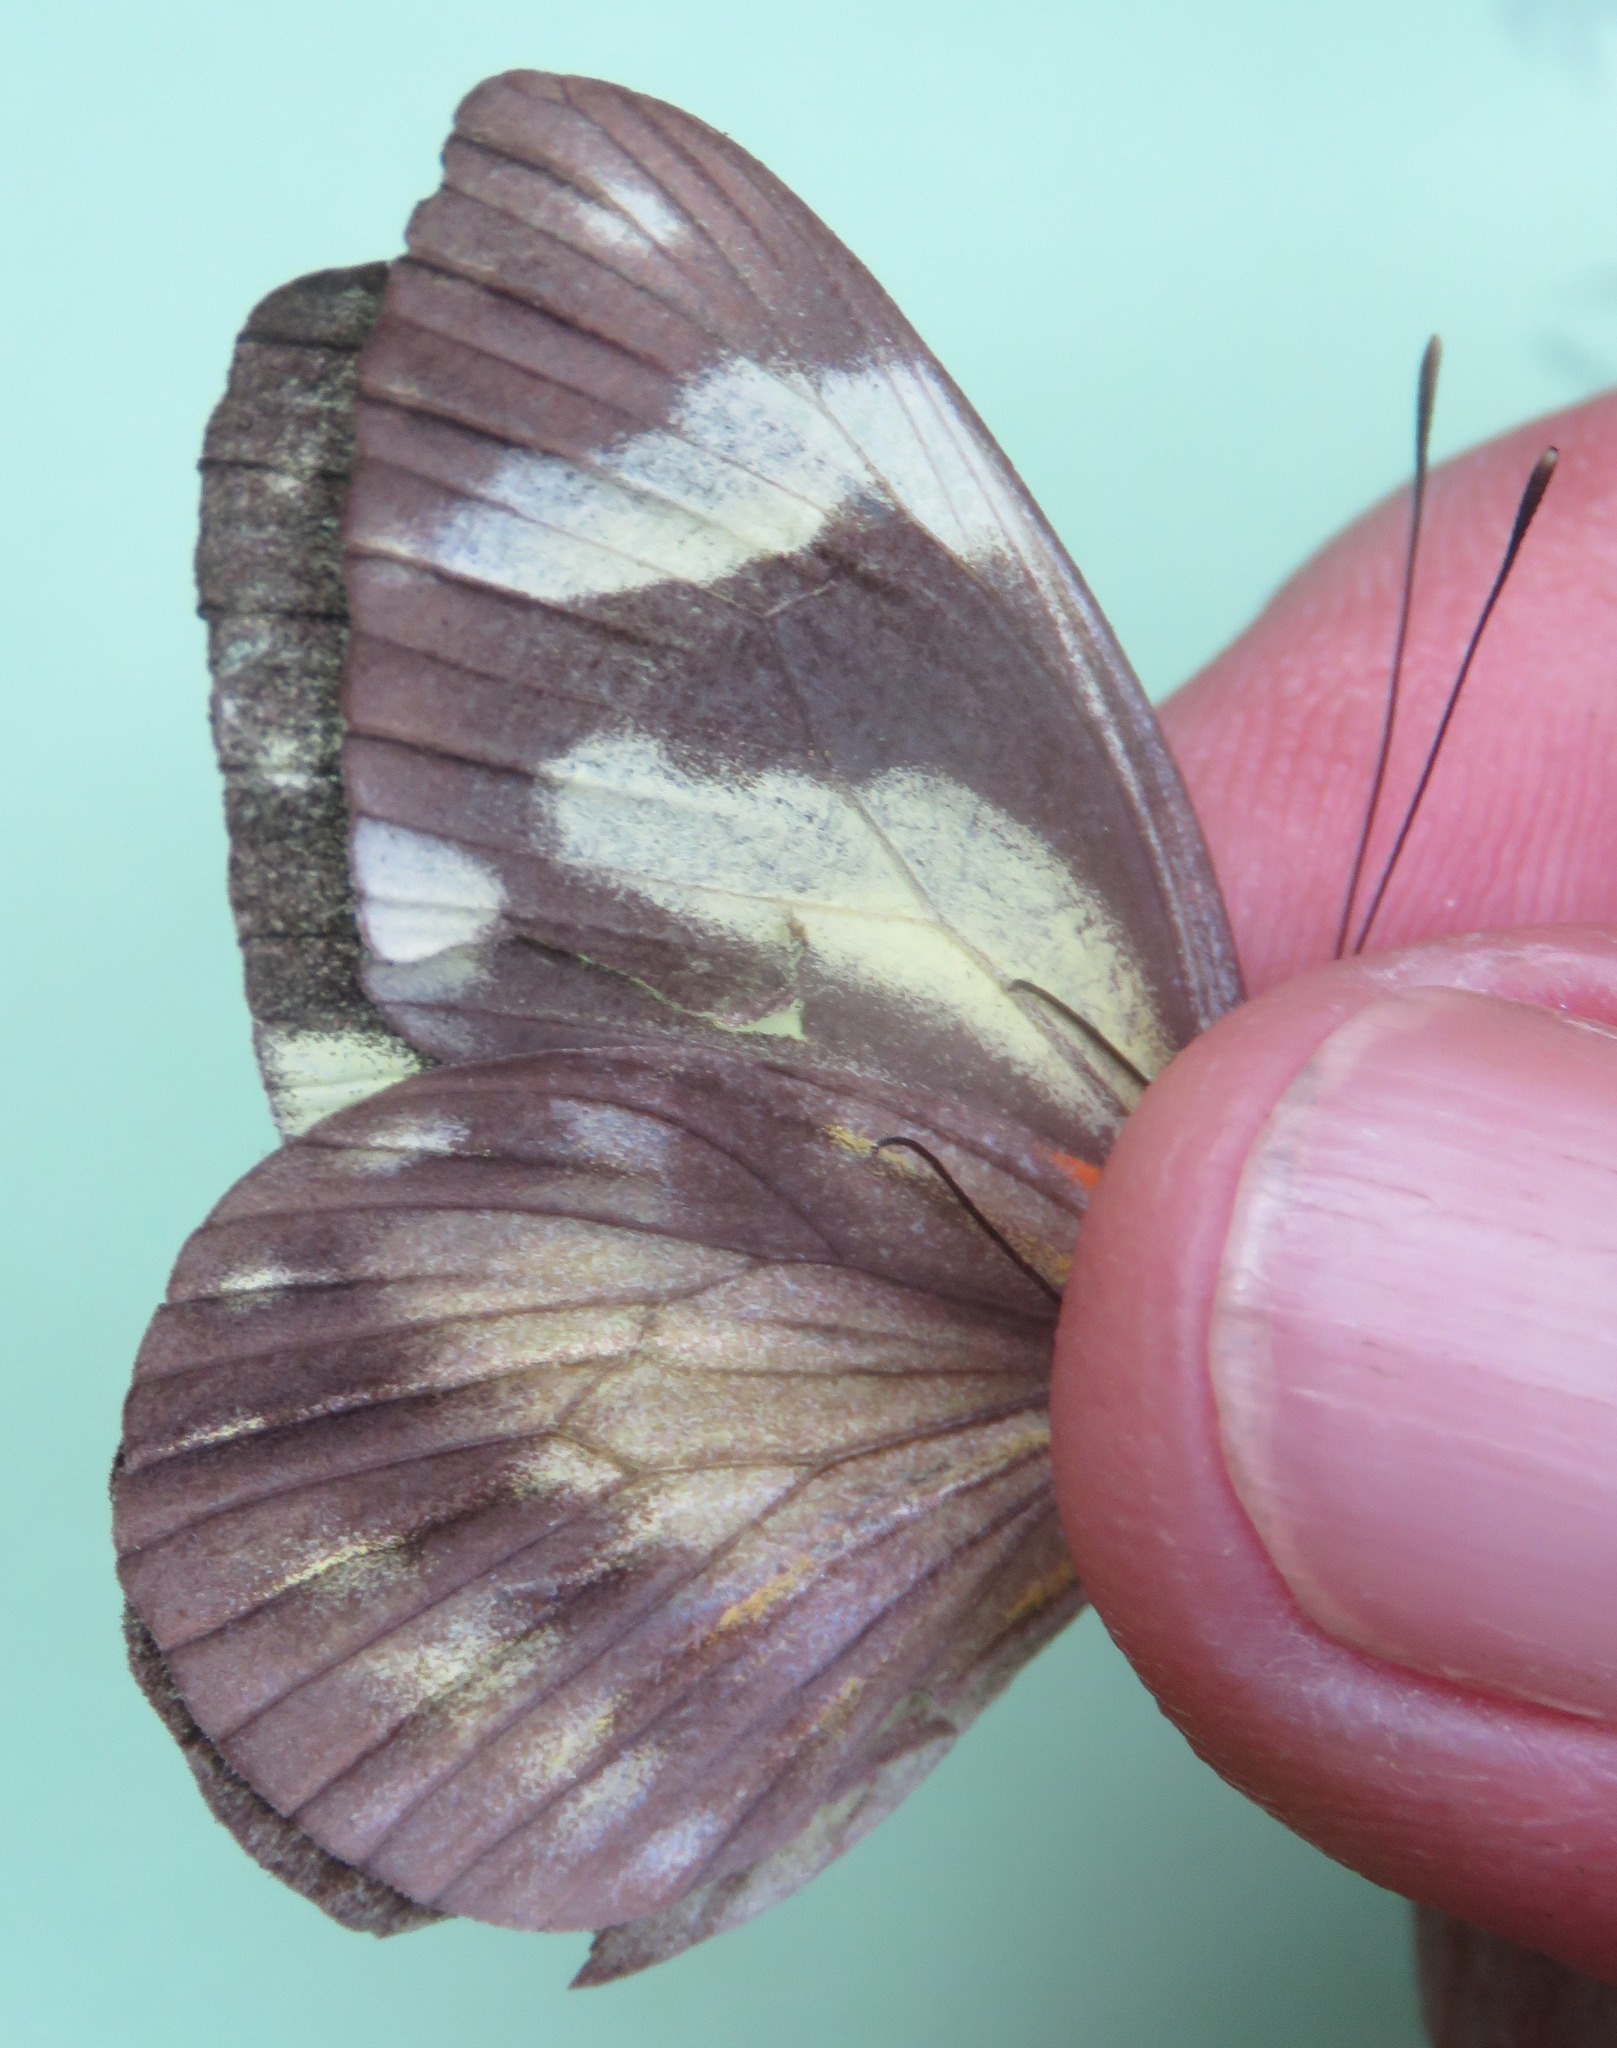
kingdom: Animalia
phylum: Arthropoda
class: Insecta
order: Lepidoptera
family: Pieridae
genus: Pieriballia
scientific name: Pieriballia viardi
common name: Painted white
